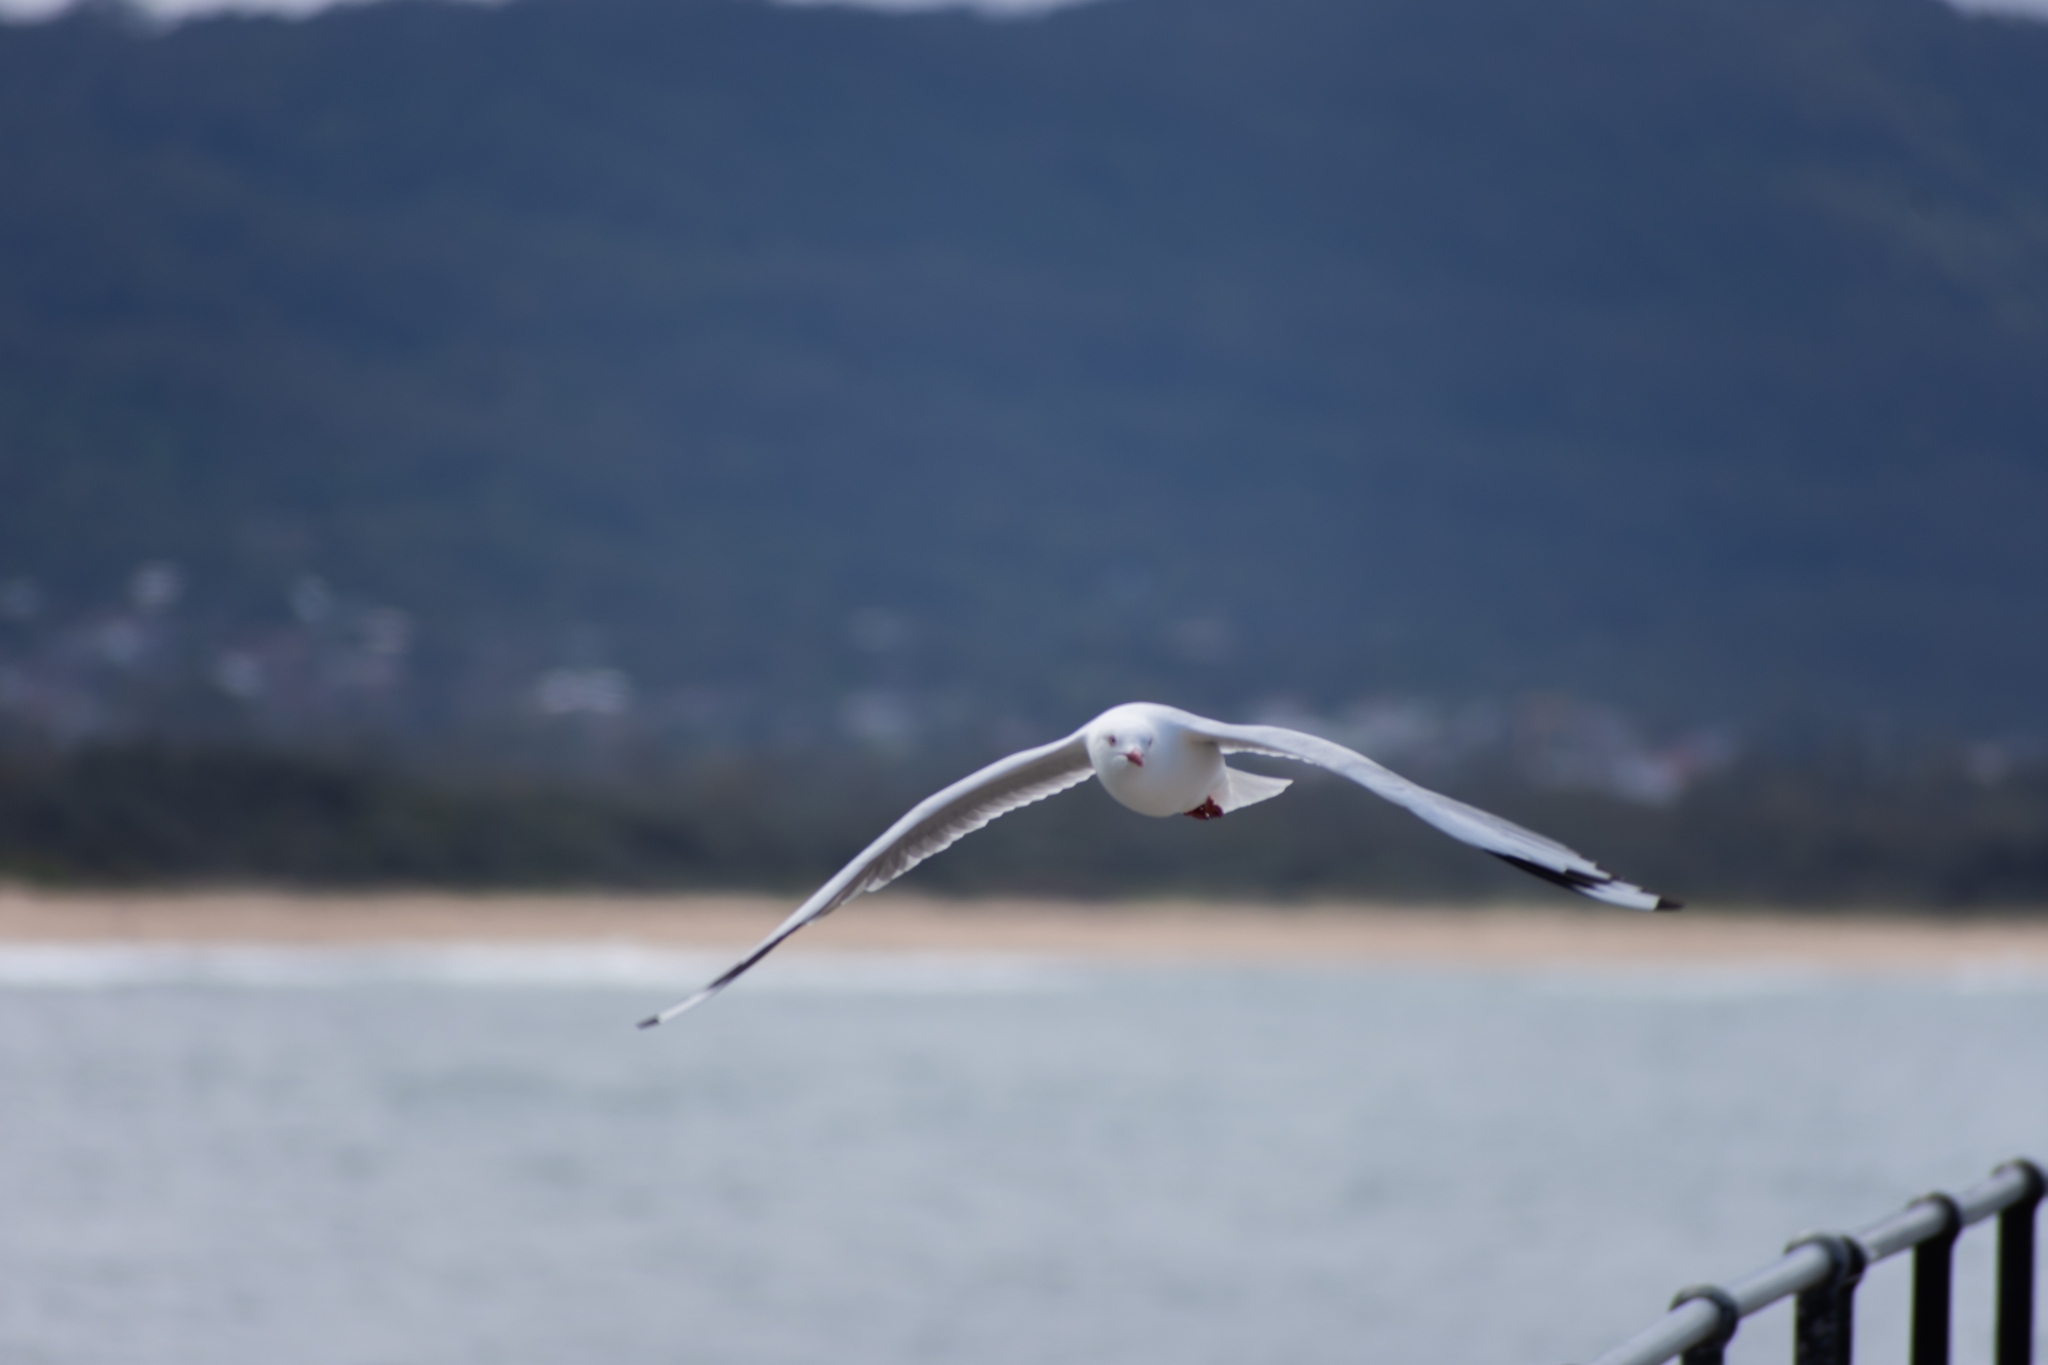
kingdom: Animalia
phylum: Chordata
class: Aves
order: Charadriiformes
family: Laridae
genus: Chroicocephalus
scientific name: Chroicocephalus novaehollandiae
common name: Silver gull
